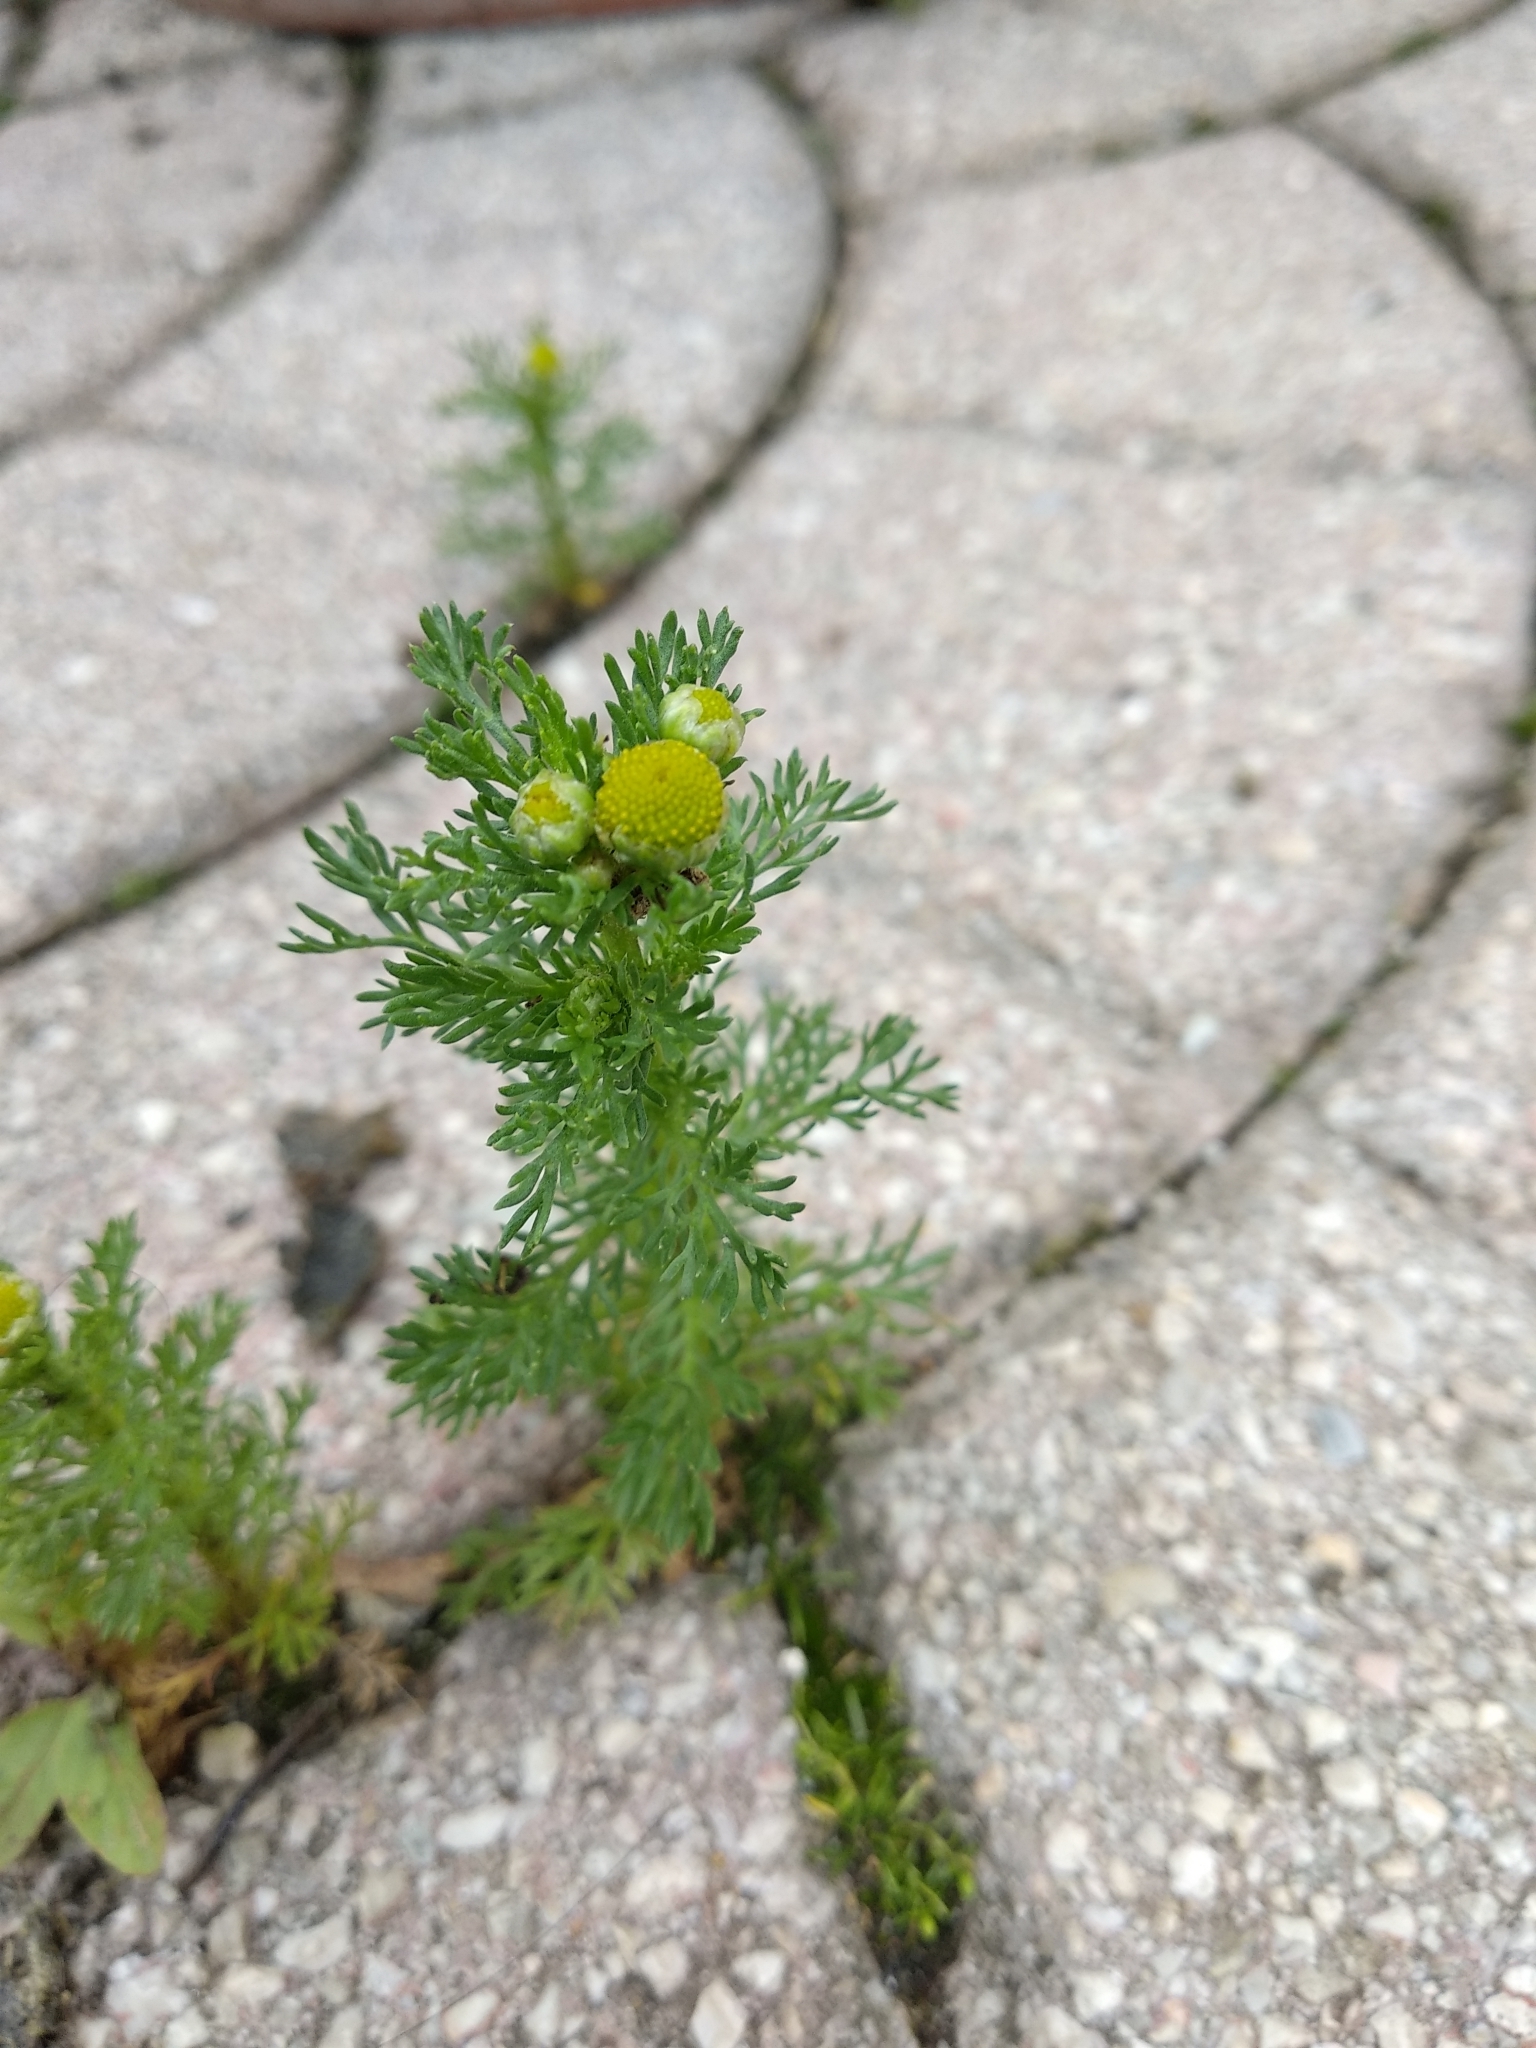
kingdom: Plantae
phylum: Tracheophyta
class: Magnoliopsida
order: Asterales
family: Asteraceae
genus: Matricaria
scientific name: Matricaria discoidea
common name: Disc mayweed
